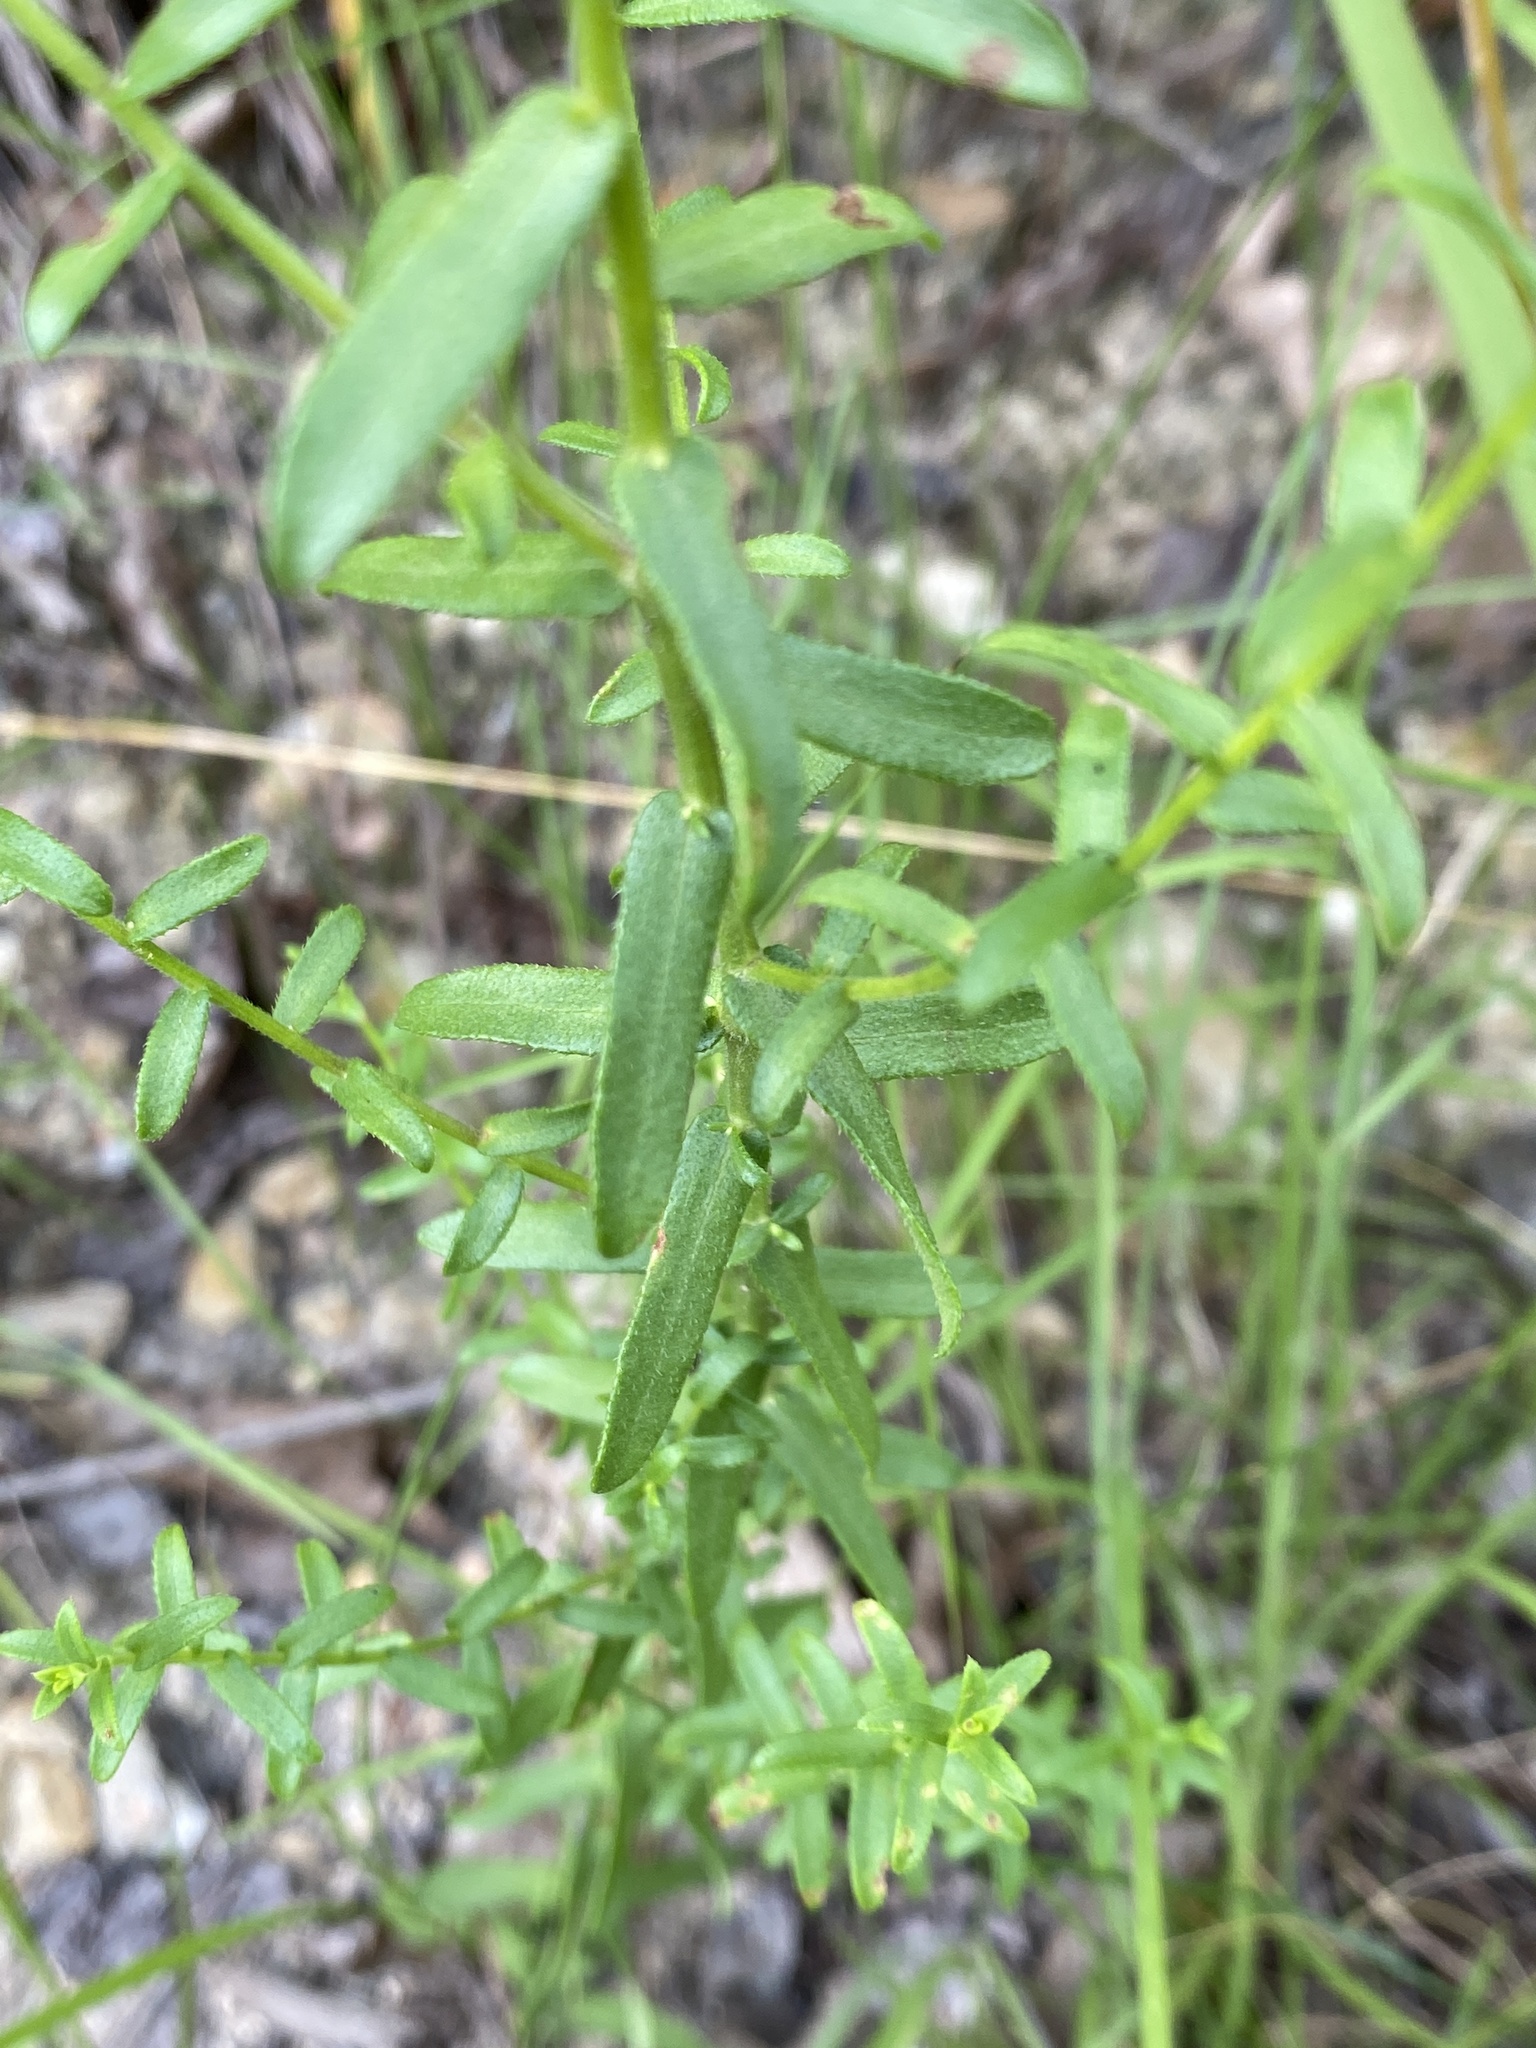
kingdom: Plantae
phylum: Tracheophyta
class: Magnoliopsida
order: Asterales
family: Asteraceae
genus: Symphyotrichum
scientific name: Symphyotrichum grandiflorum
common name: Big-head aster
